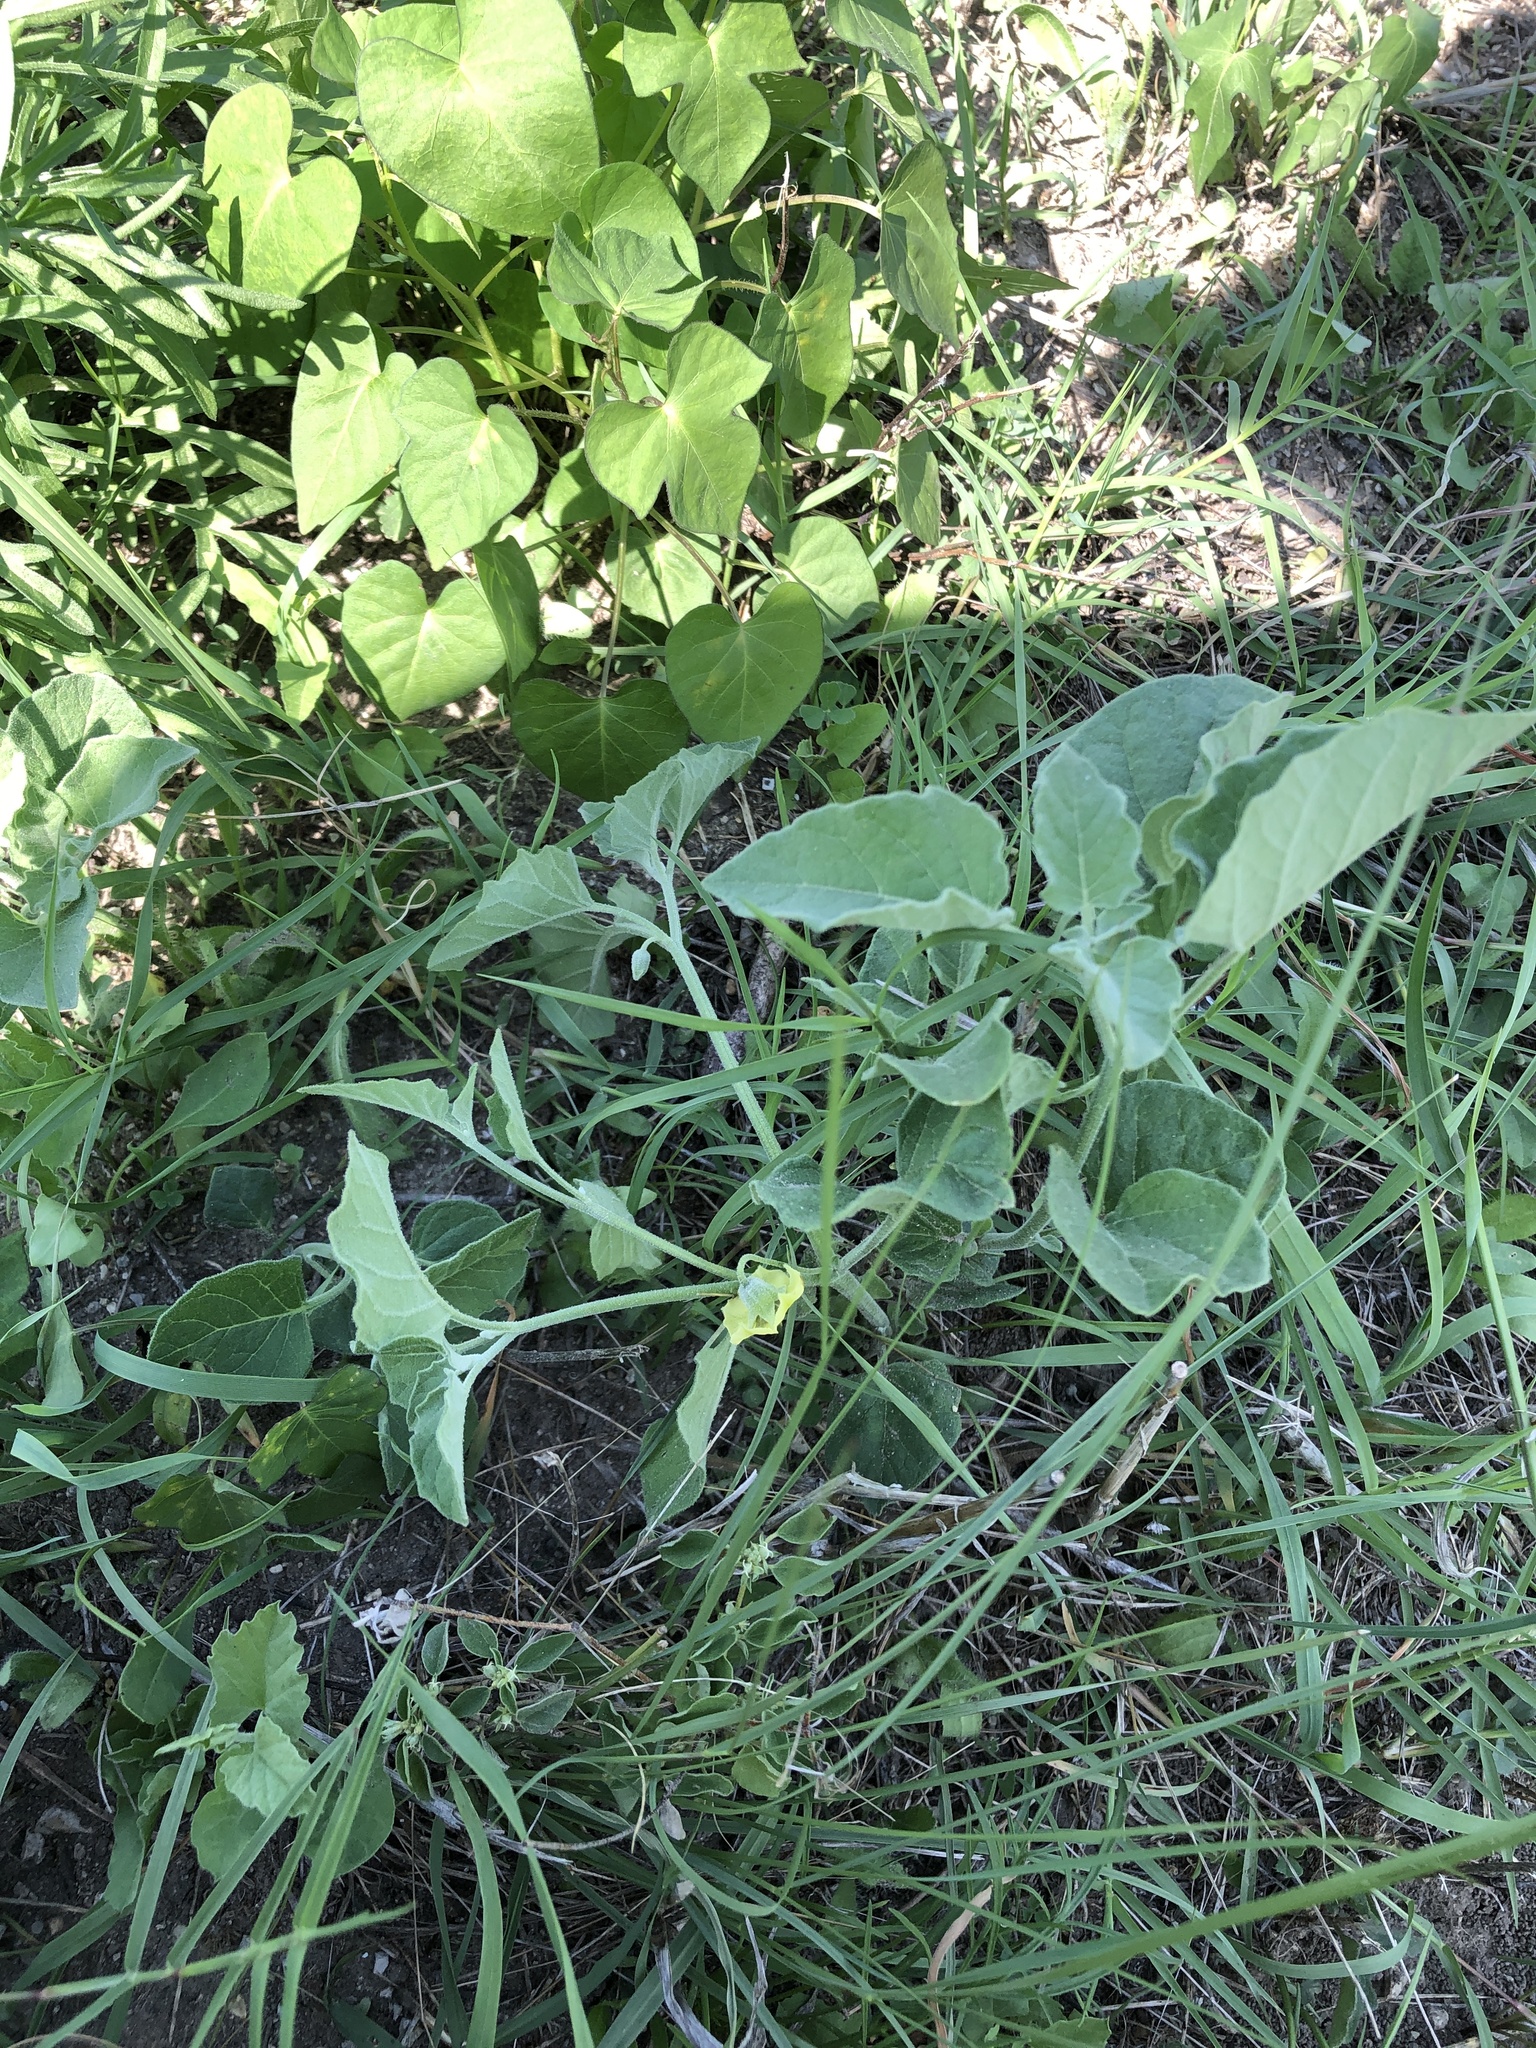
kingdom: Plantae
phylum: Tracheophyta
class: Magnoliopsida
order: Solanales
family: Solanaceae
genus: Physalis
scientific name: Physalis cinerascens
